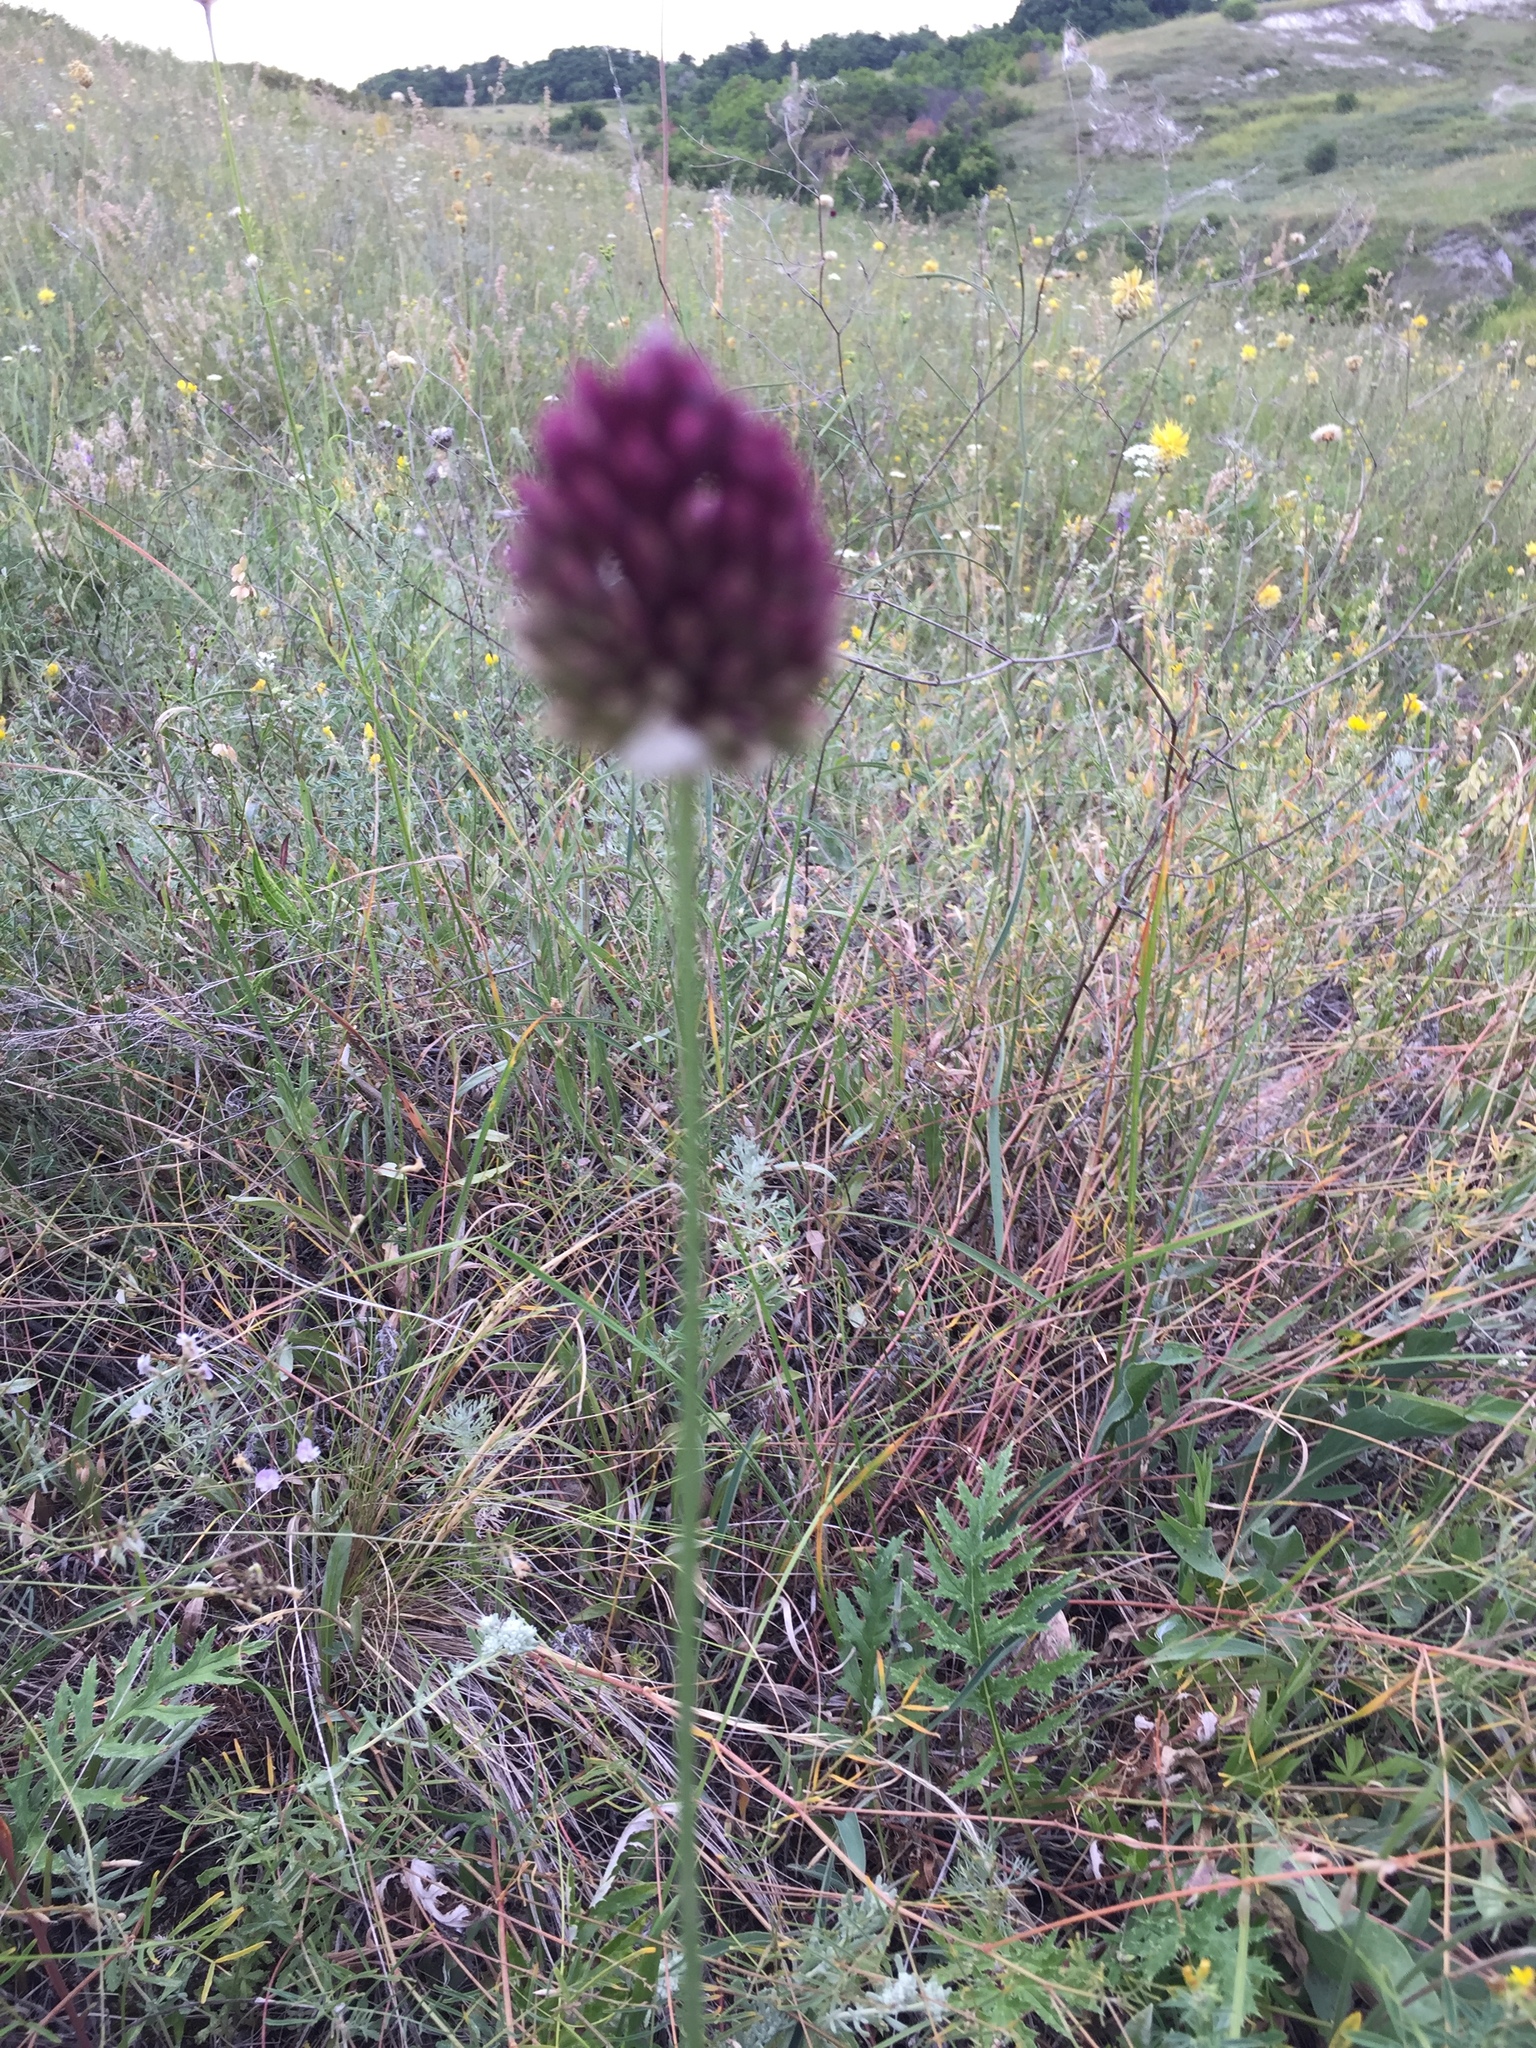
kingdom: Plantae
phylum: Tracheophyta
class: Liliopsida
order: Asparagales
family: Amaryllidaceae
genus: Allium
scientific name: Allium sphaerocephalon
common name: Round-headed leek
